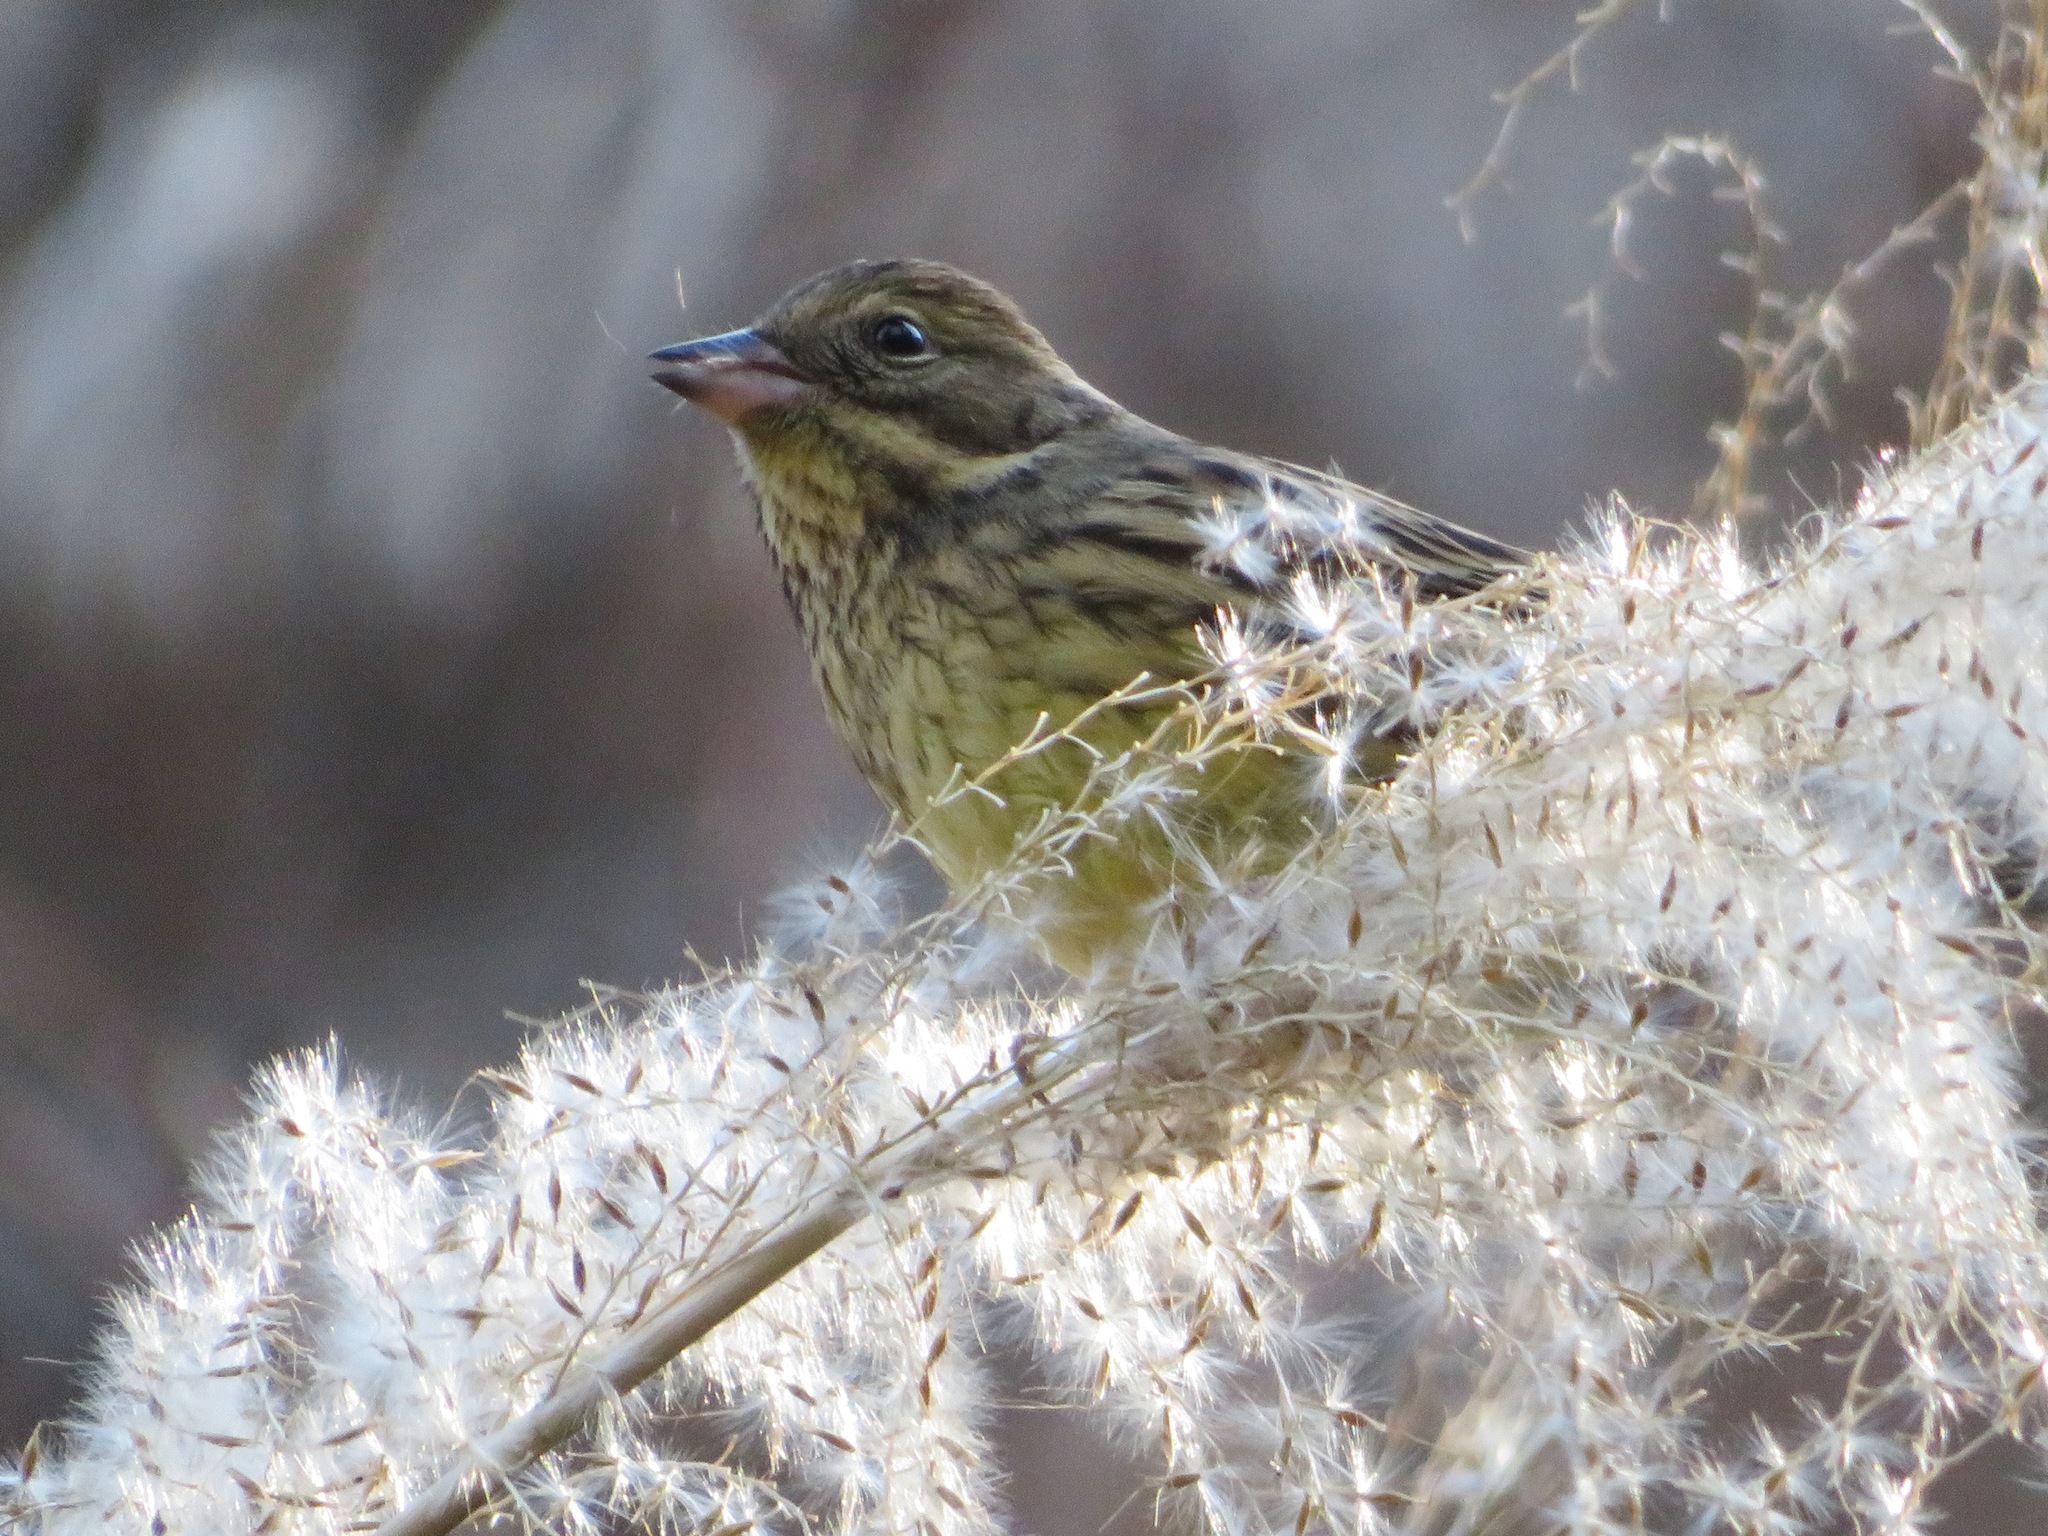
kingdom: Animalia
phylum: Chordata
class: Aves
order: Passeriformes
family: Emberizidae
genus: Emberiza
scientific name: Emberiza personata
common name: Masked bunting
